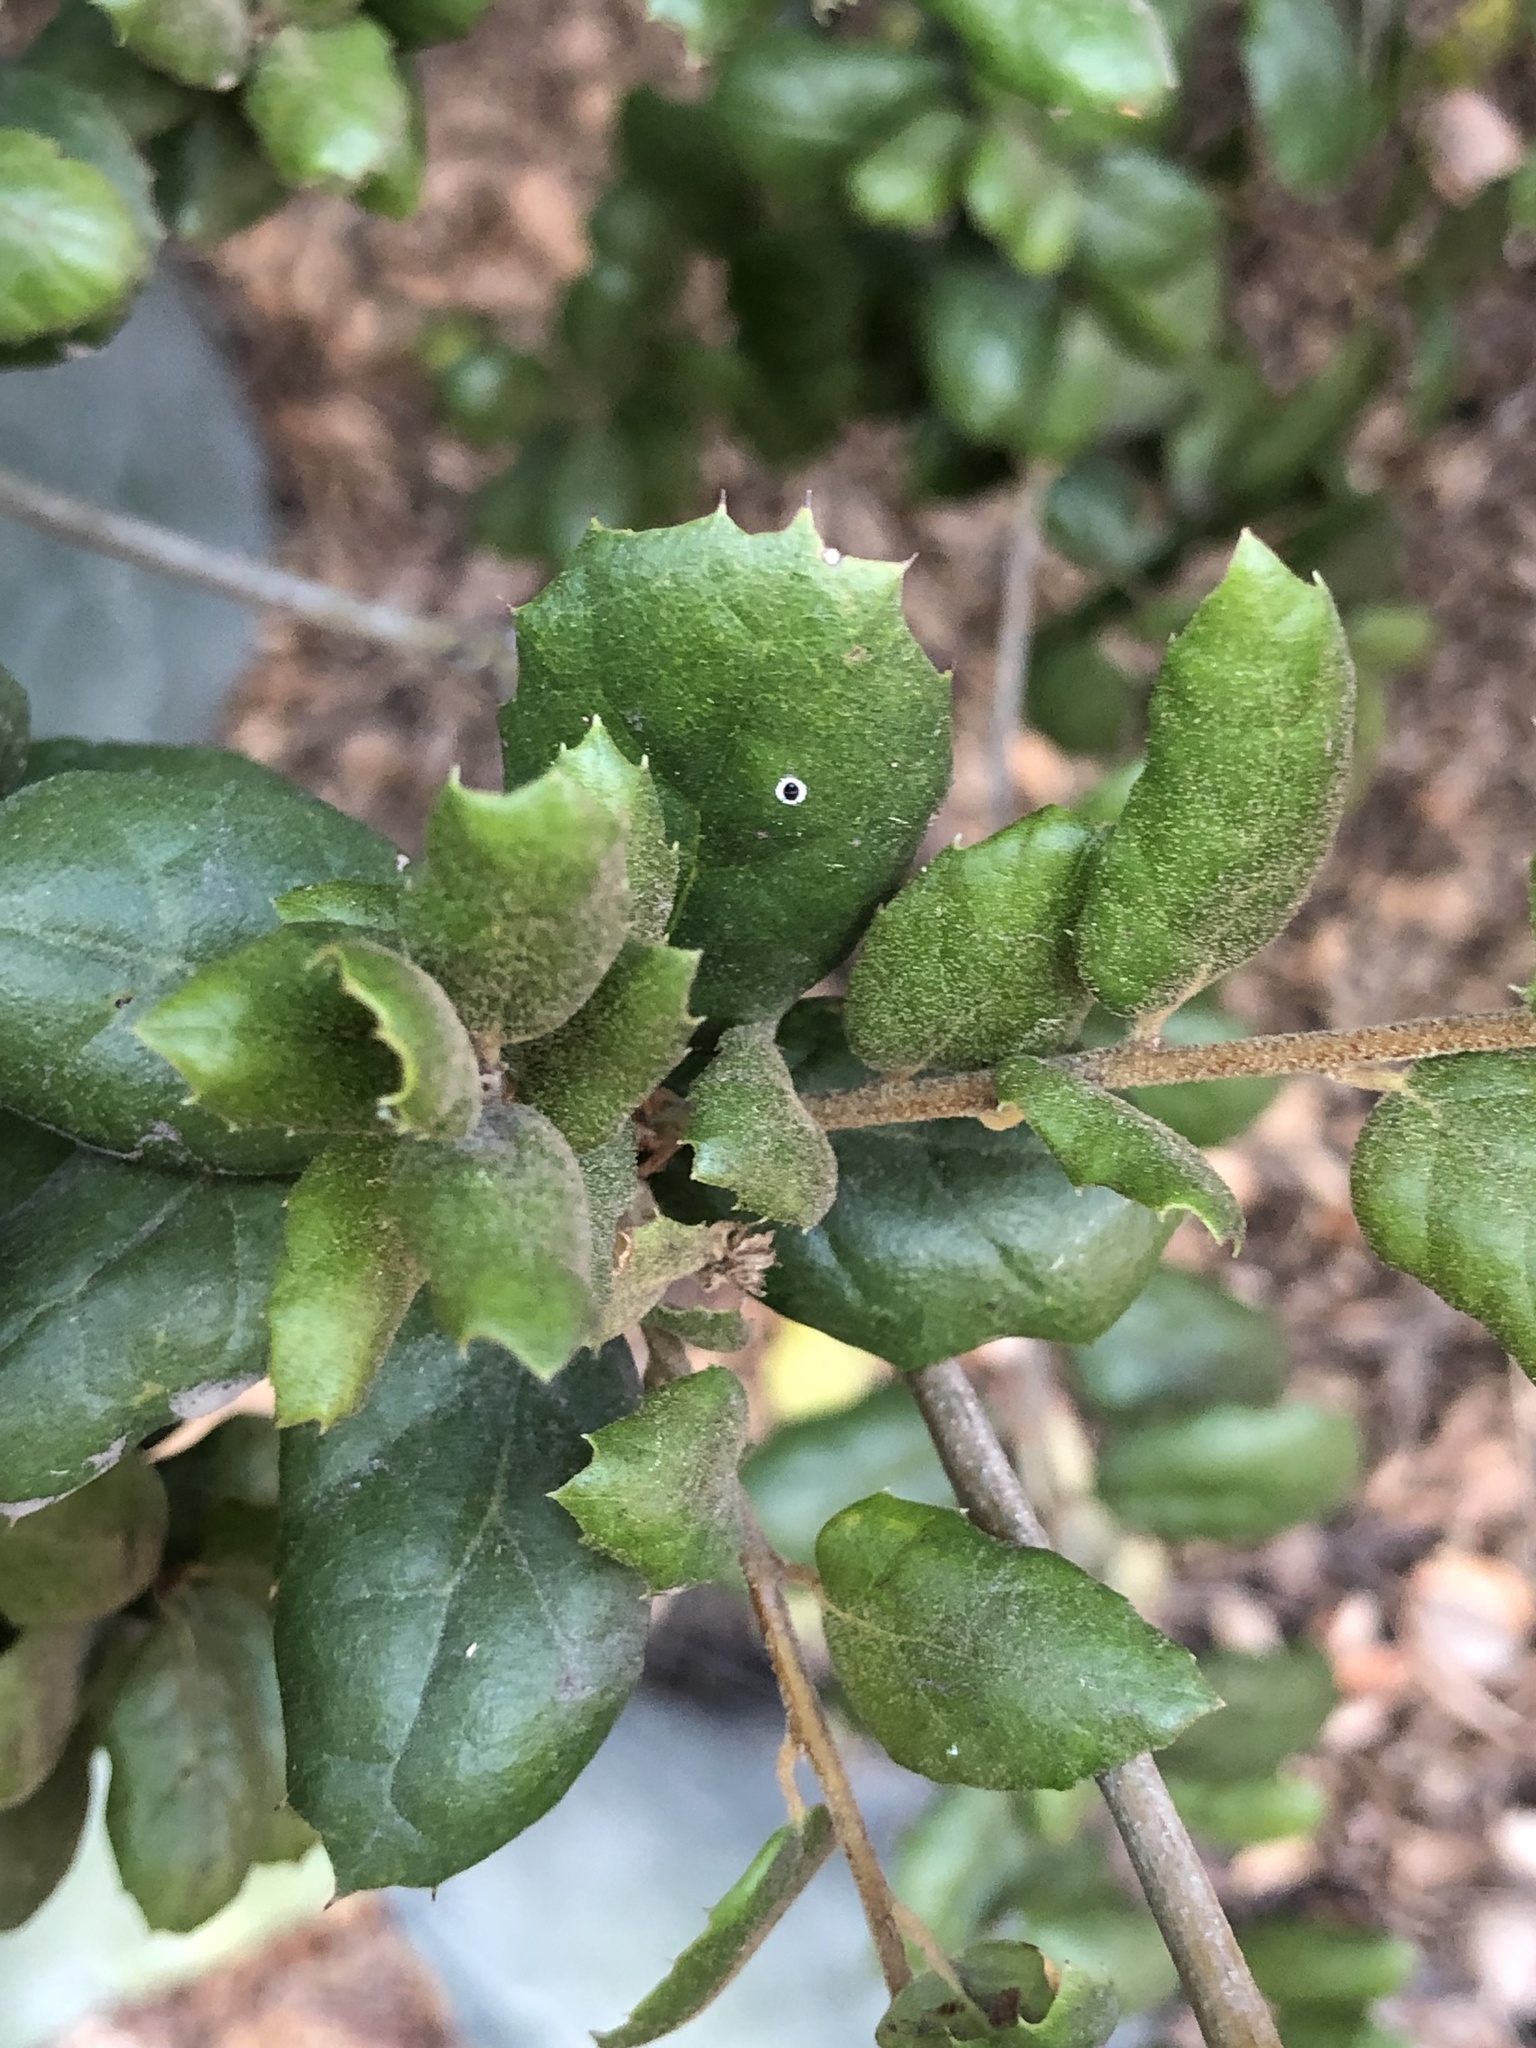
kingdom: Plantae
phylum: Tracheophyta
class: Magnoliopsida
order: Fagales
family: Fagaceae
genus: Quercus
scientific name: Quercus agrifolia
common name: California live oak
